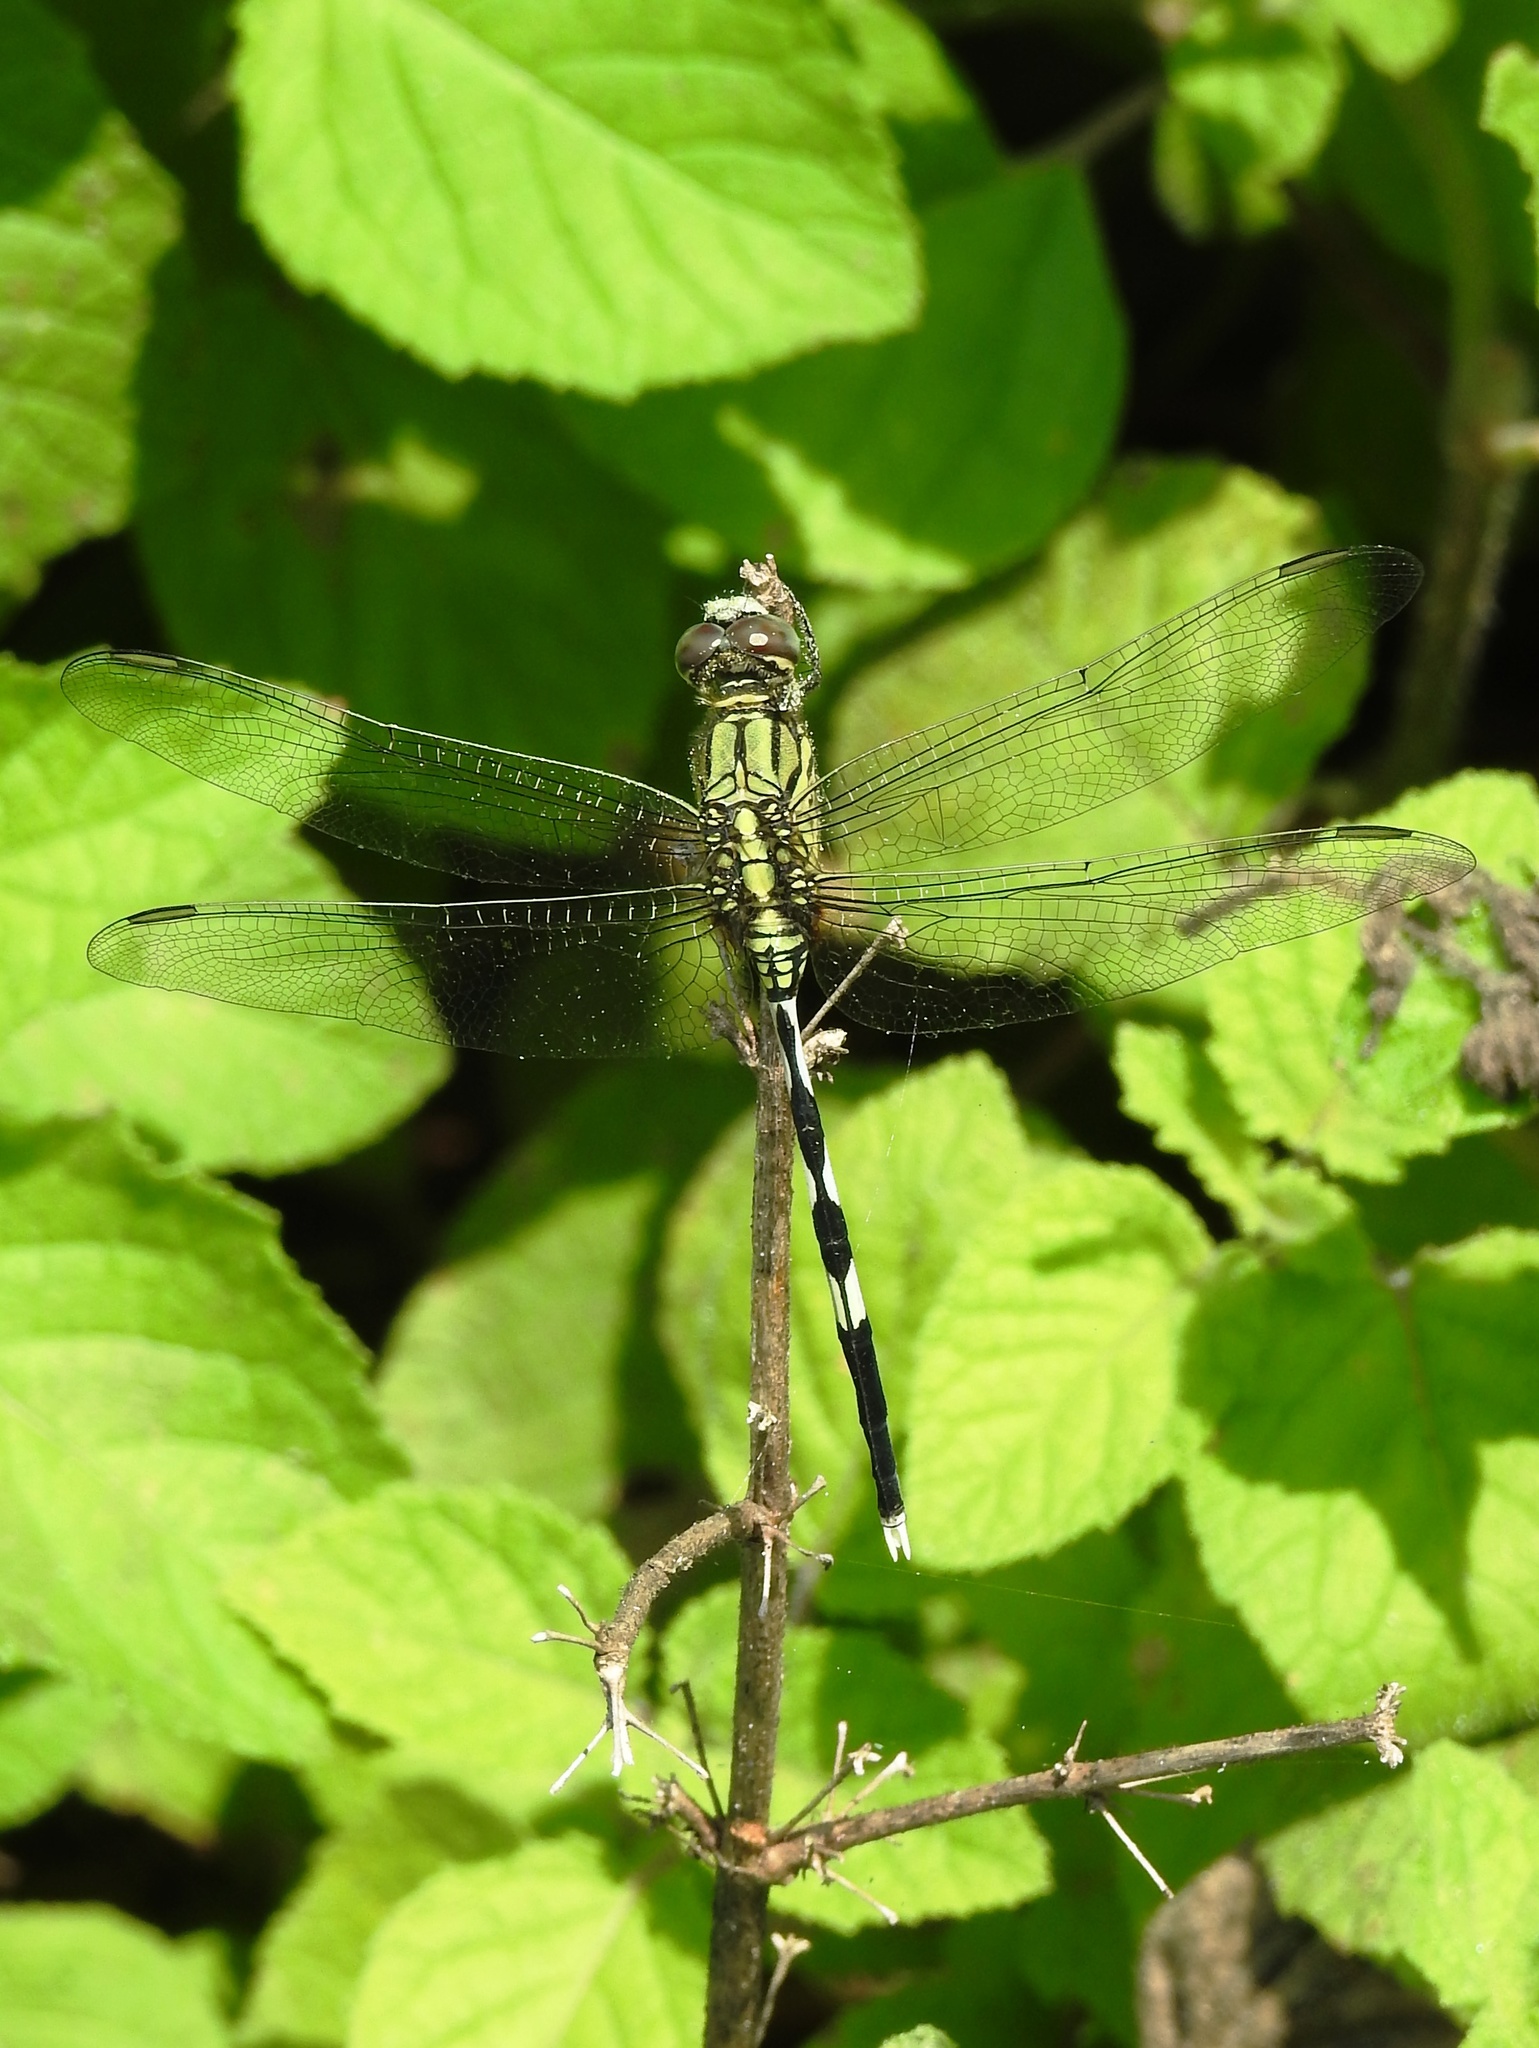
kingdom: Animalia
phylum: Arthropoda
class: Insecta
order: Odonata
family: Libellulidae
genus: Orthetrum
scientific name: Orthetrum sabina
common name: Slender skimmer
